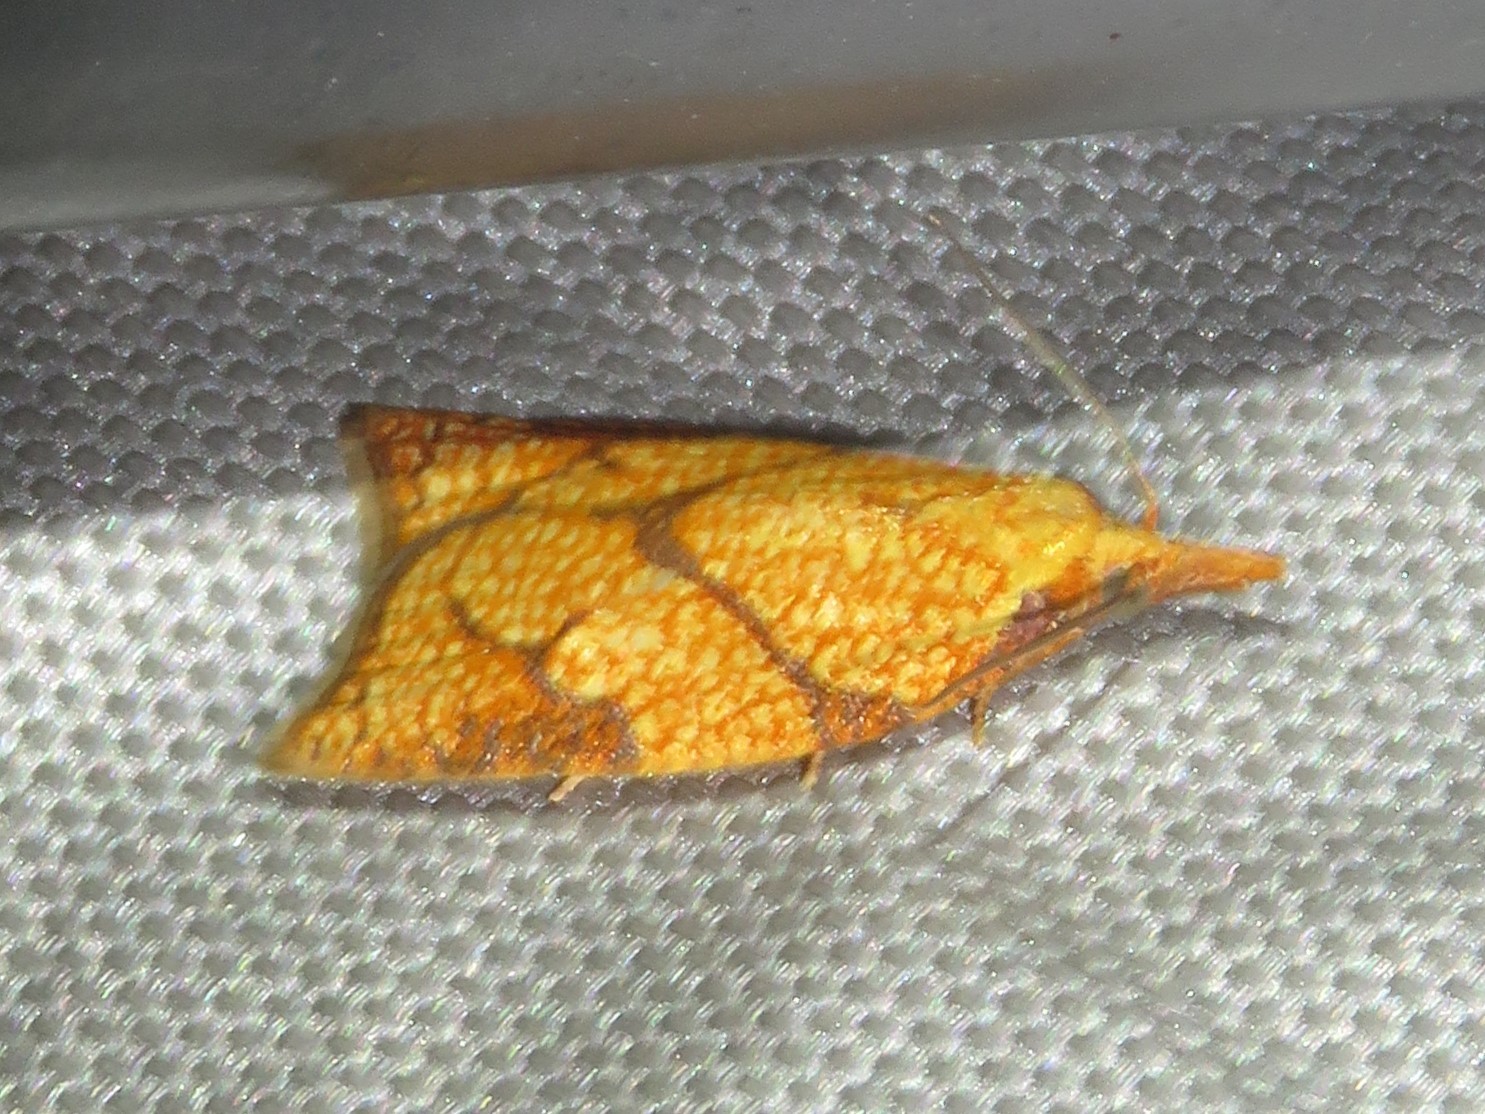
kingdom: Animalia
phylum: Arthropoda
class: Insecta
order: Lepidoptera
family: Tortricidae
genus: Cenopis
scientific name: Cenopis reticulatana
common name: Reticulated fruitworm moth
